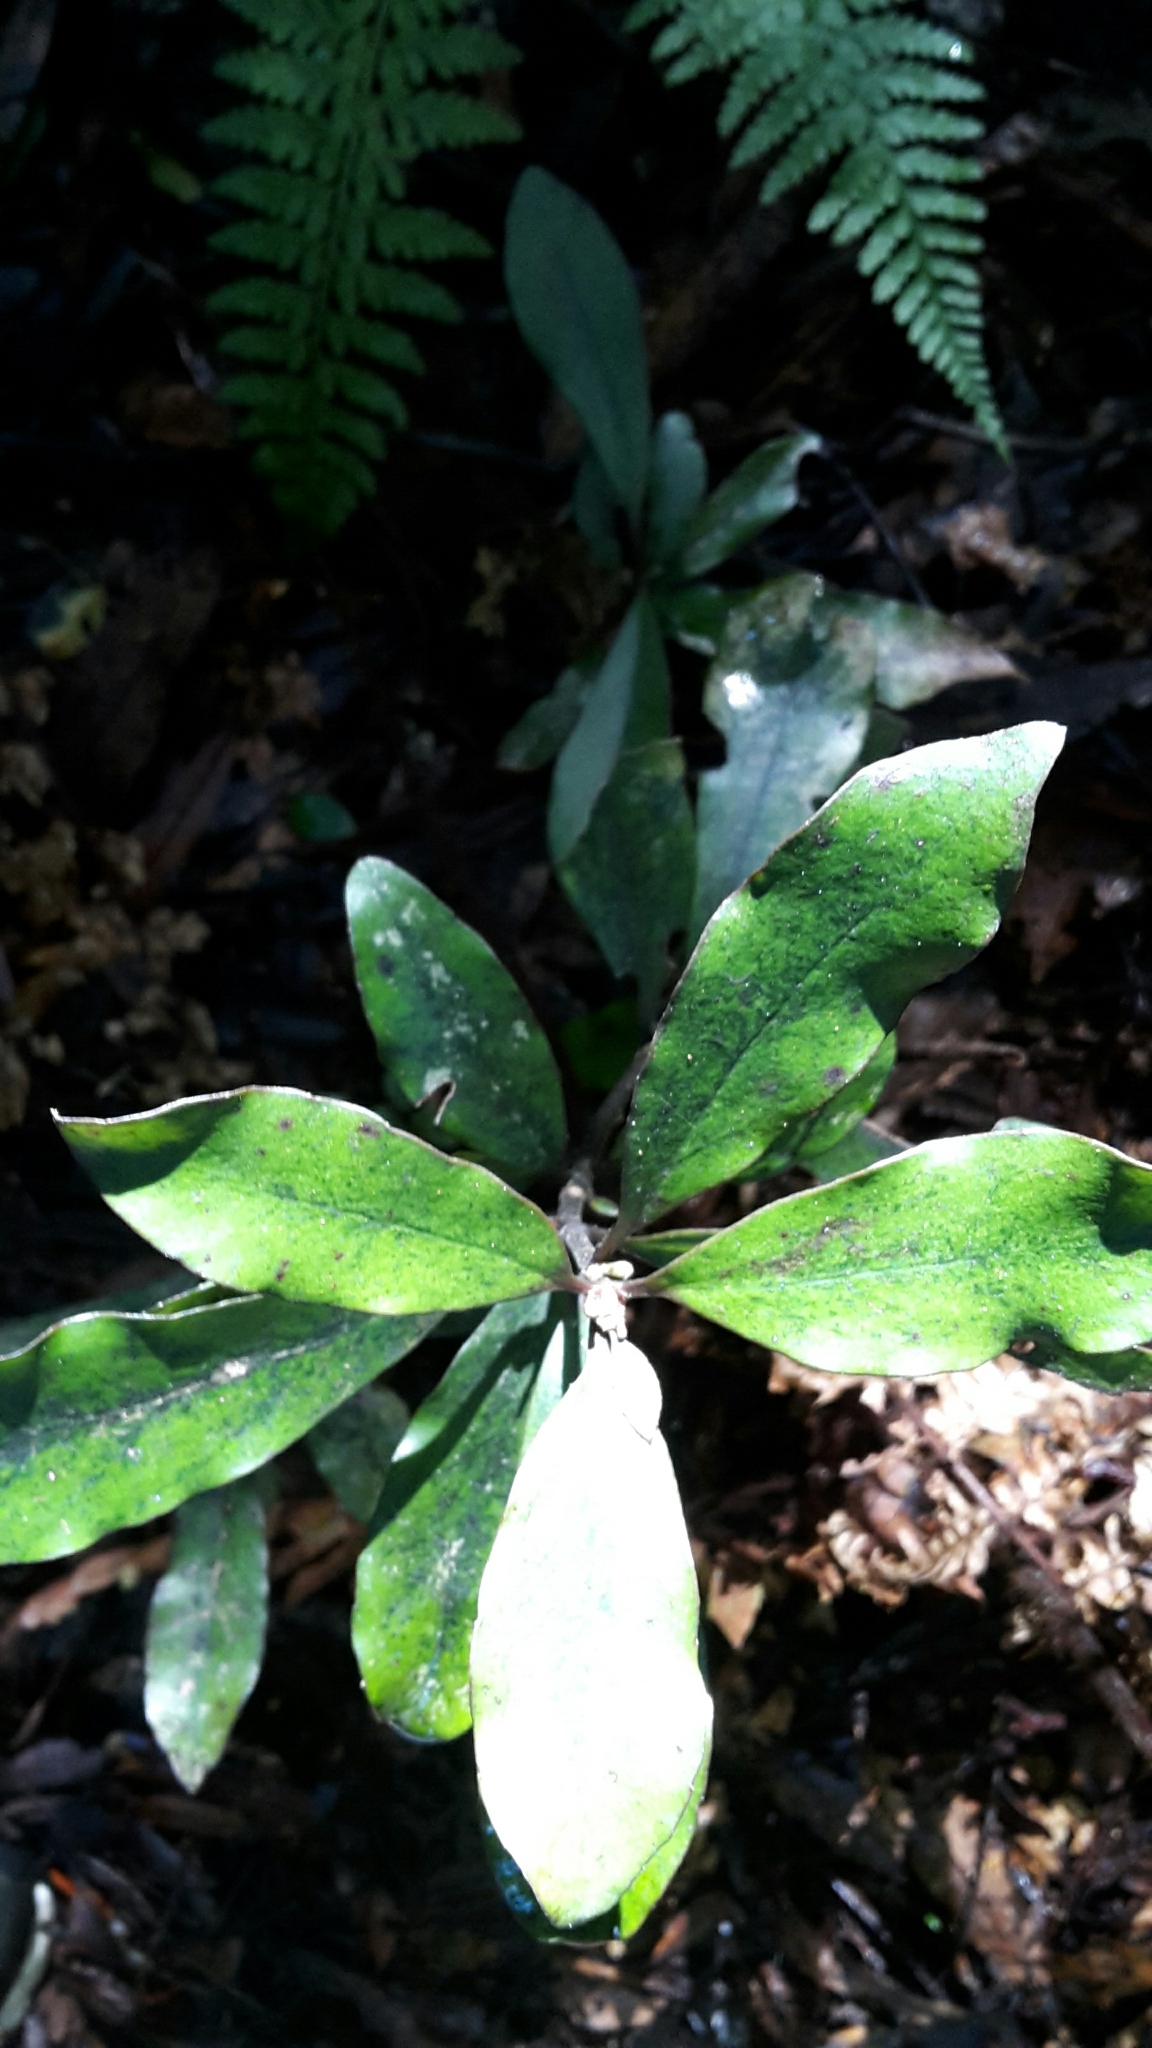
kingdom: Plantae
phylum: Tracheophyta
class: Magnoliopsida
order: Asterales
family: Alseuosmiaceae
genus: Alseuosmia
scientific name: Alseuosmia pusilla
